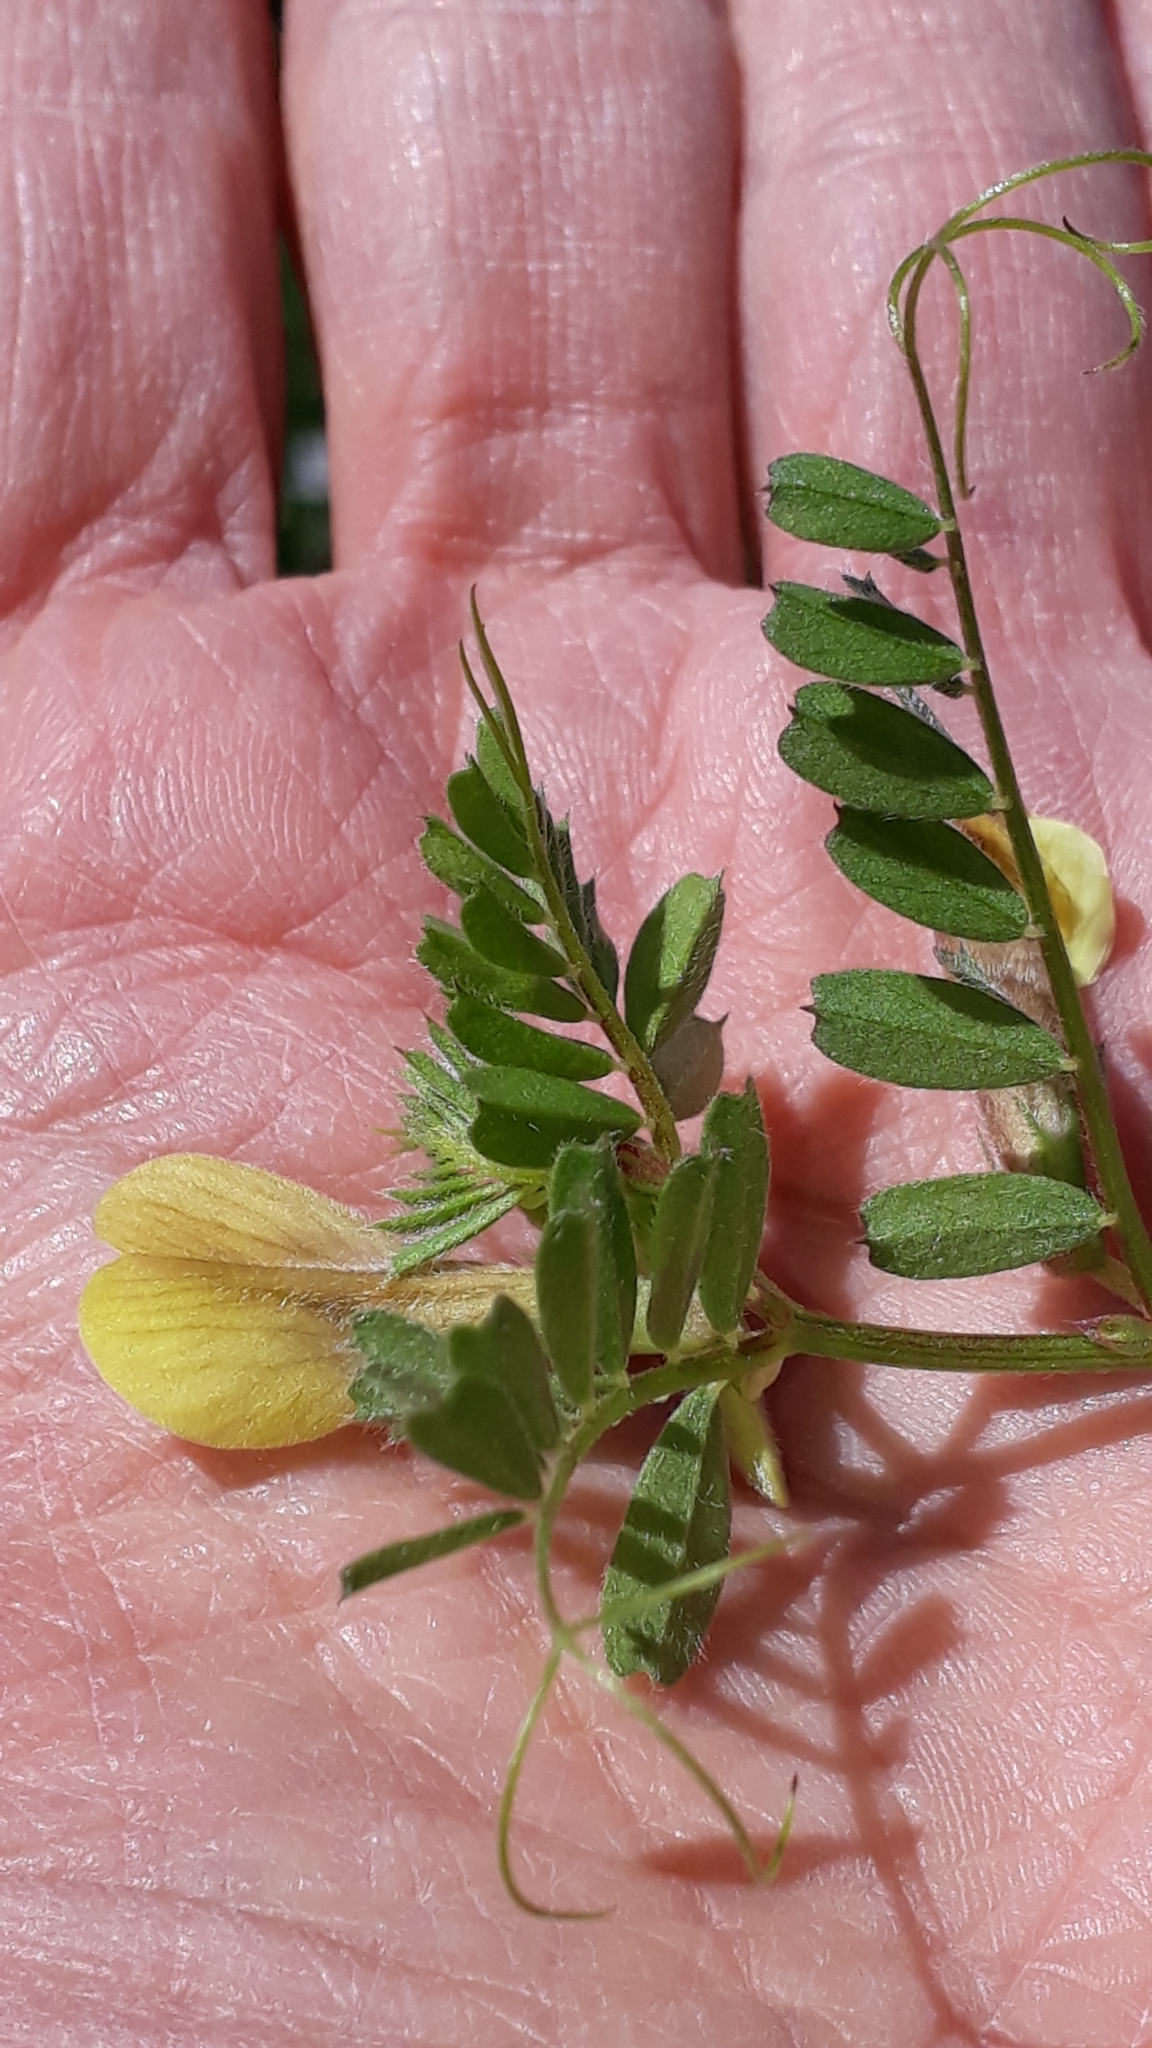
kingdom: Plantae
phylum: Tracheophyta
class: Magnoliopsida
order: Fabales
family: Fabaceae
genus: Vicia
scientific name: Vicia hybrida
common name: Hairy yellow vetch
